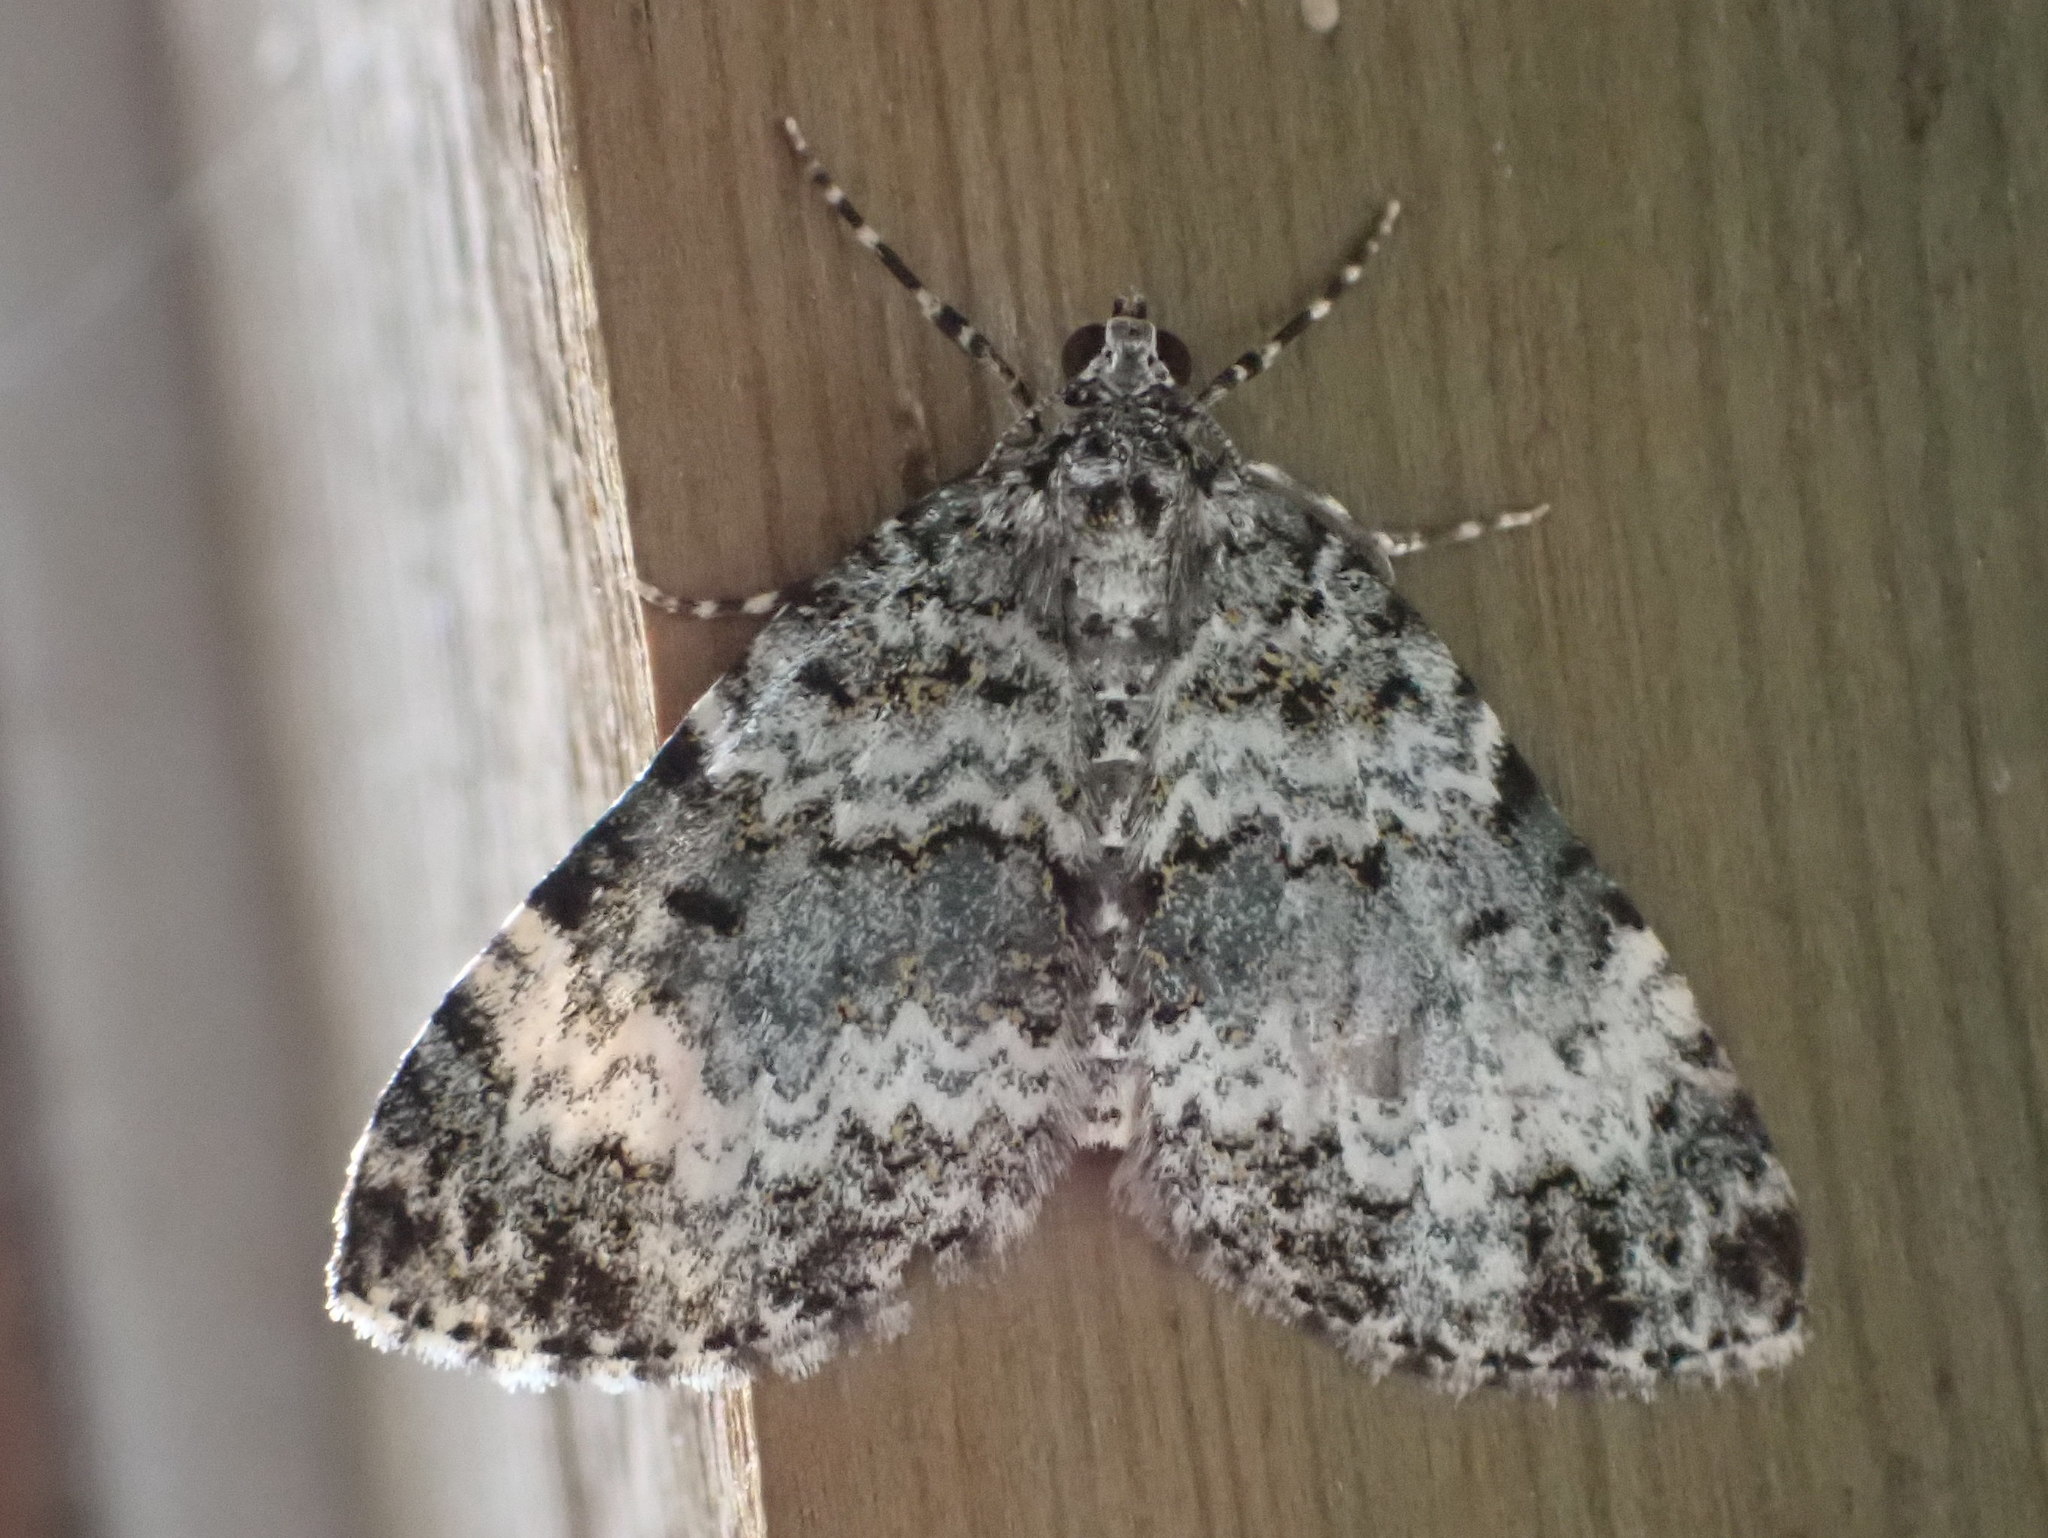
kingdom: Animalia
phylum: Arthropoda
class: Insecta
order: Lepidoptera
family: Geometridae
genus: Spargania
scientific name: Spargania magnoliata
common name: Double-banded carpet
